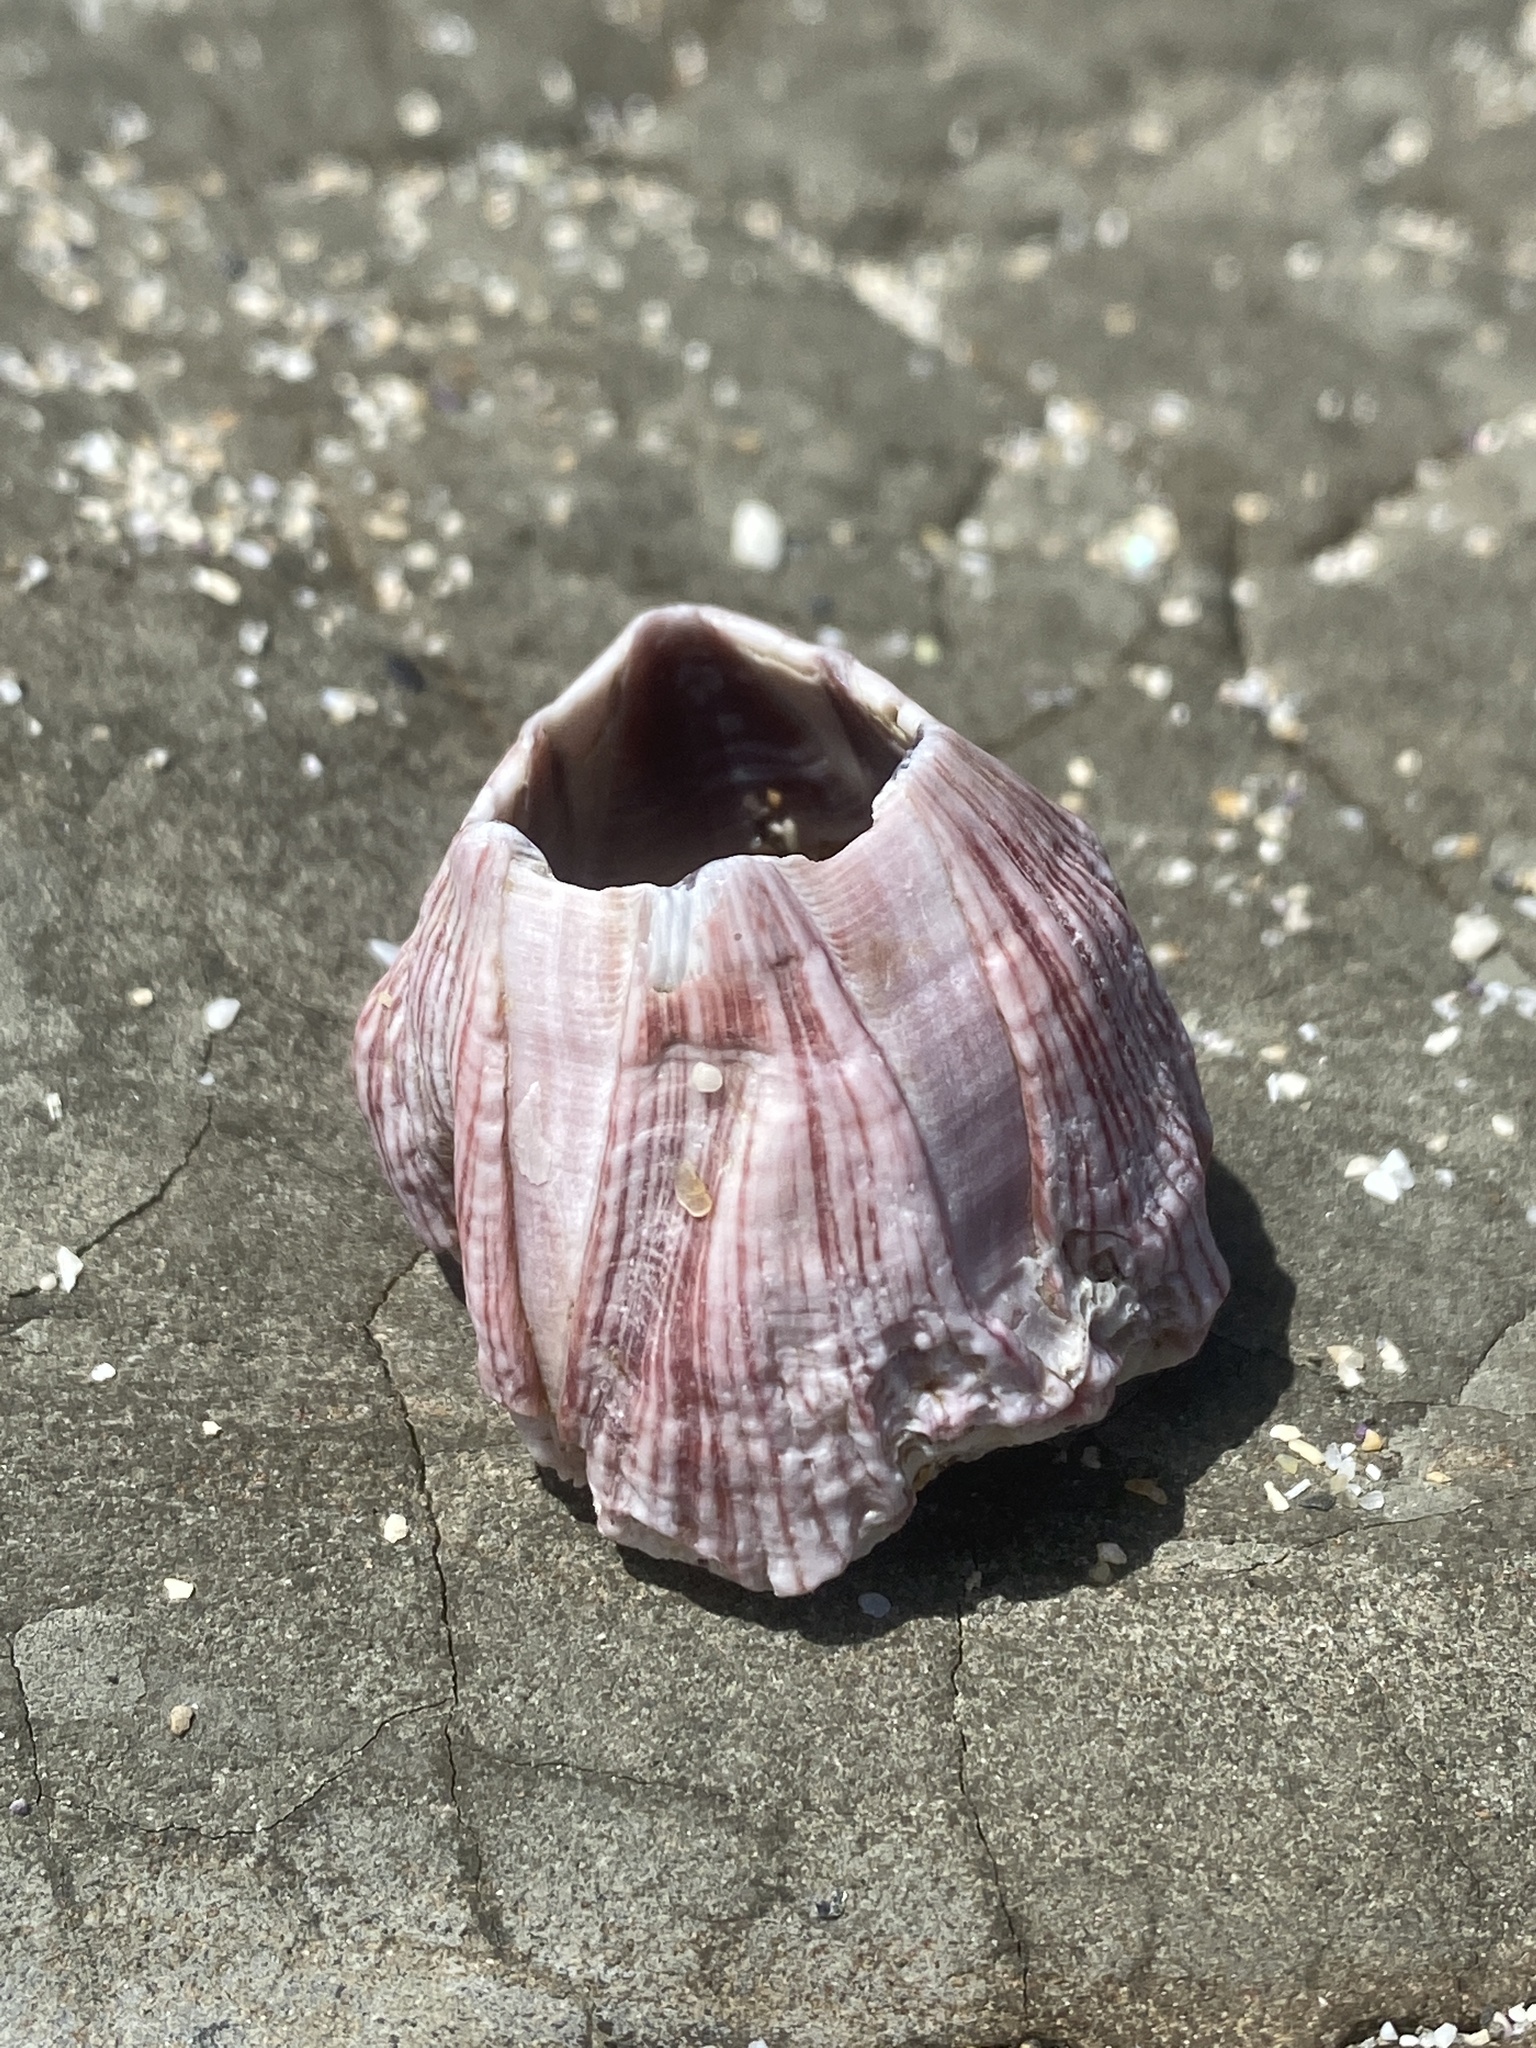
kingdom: Animalia
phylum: Arthropoda
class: Maxillopoda
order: Sessilia
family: Balanidae
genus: Megabalanus
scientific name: Megabalanus californicus
